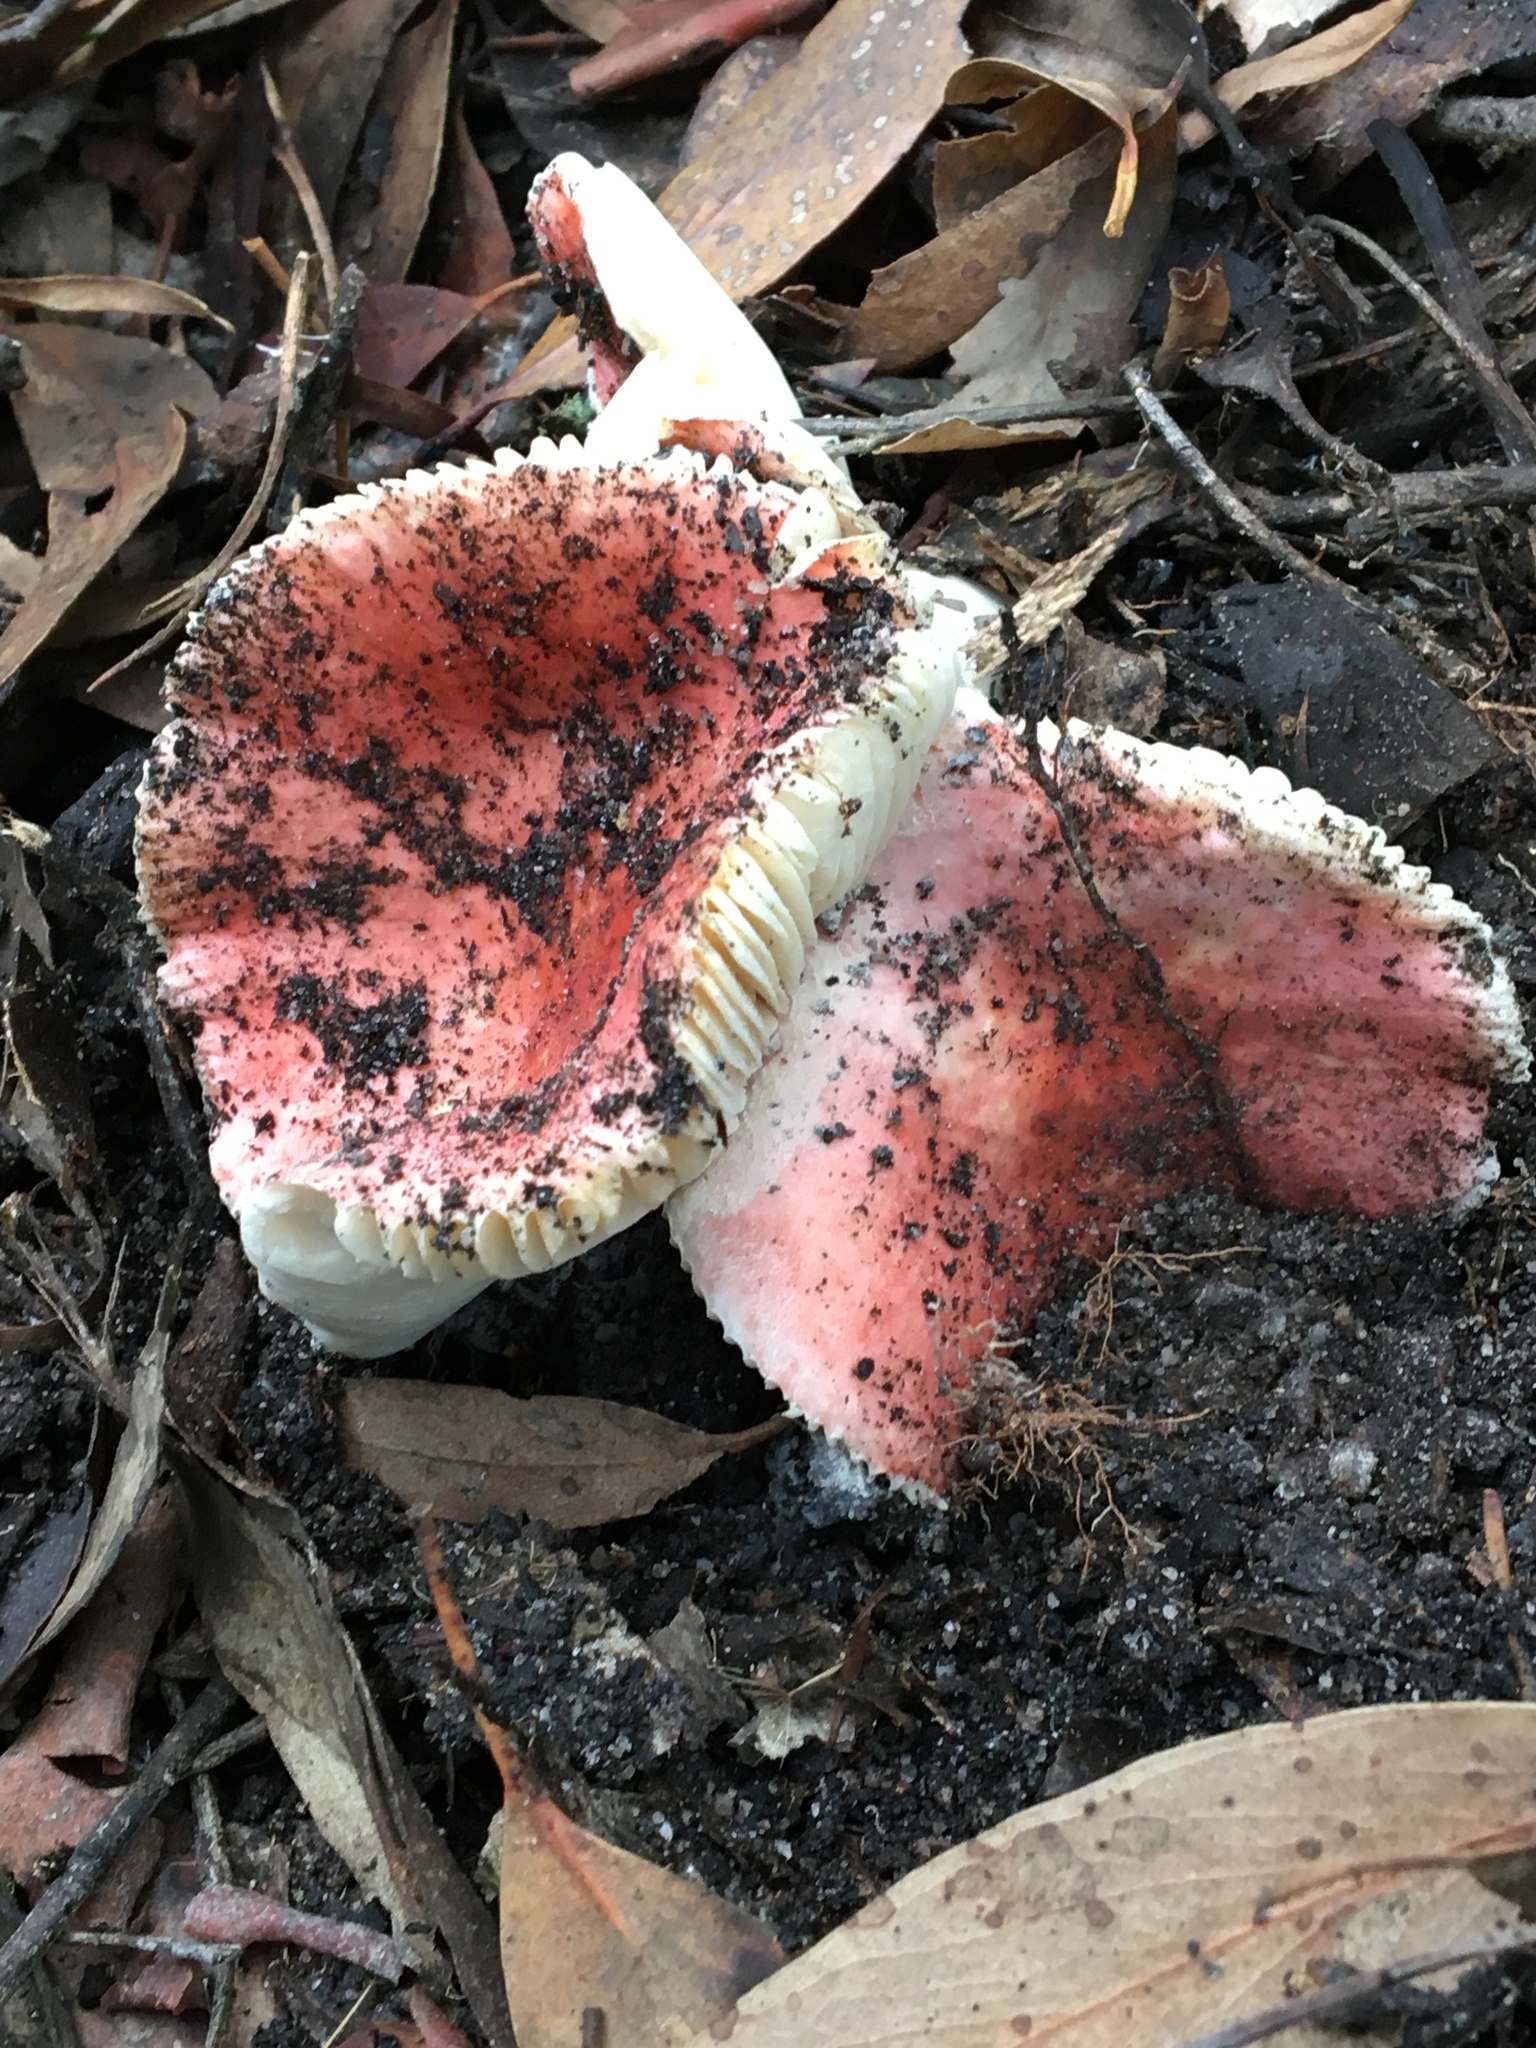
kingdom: Fungi
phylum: Basidiomycota
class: Agaricomycetes
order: Russulales
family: Russulaceae
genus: Russula
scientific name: Russula persanguinea
